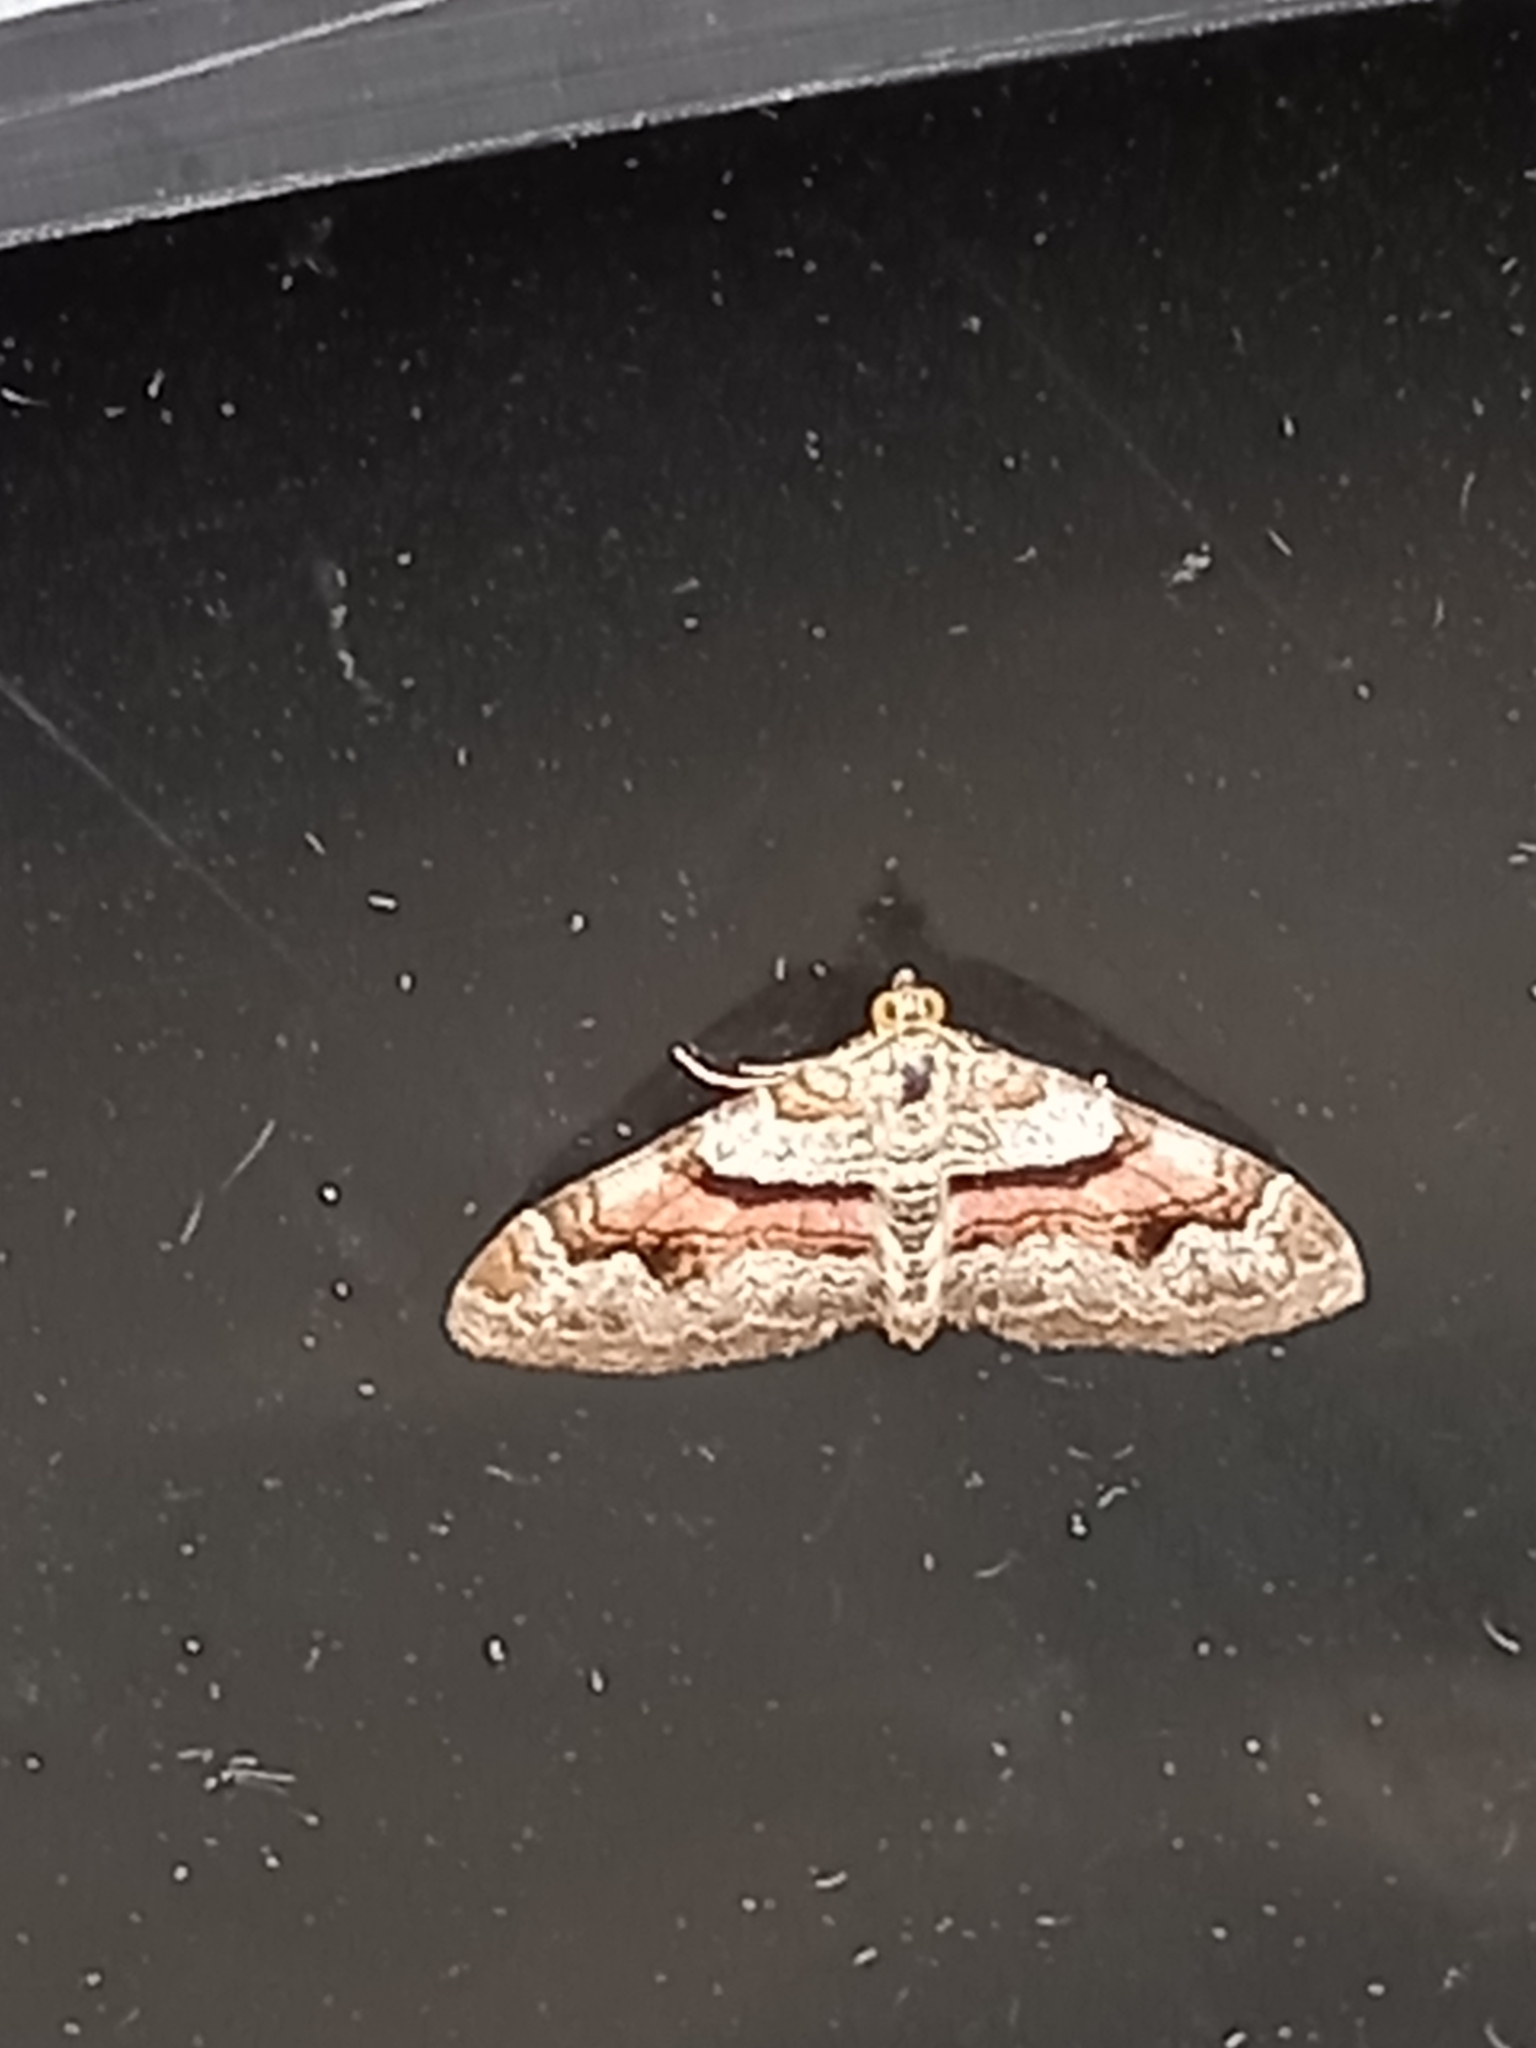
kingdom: Animalia
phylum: Arthropoda
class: Insecta
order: Lepidoptera
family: Geometridae
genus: Xanthorhoe
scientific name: Xanthorhoe designata
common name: Flame carpet
